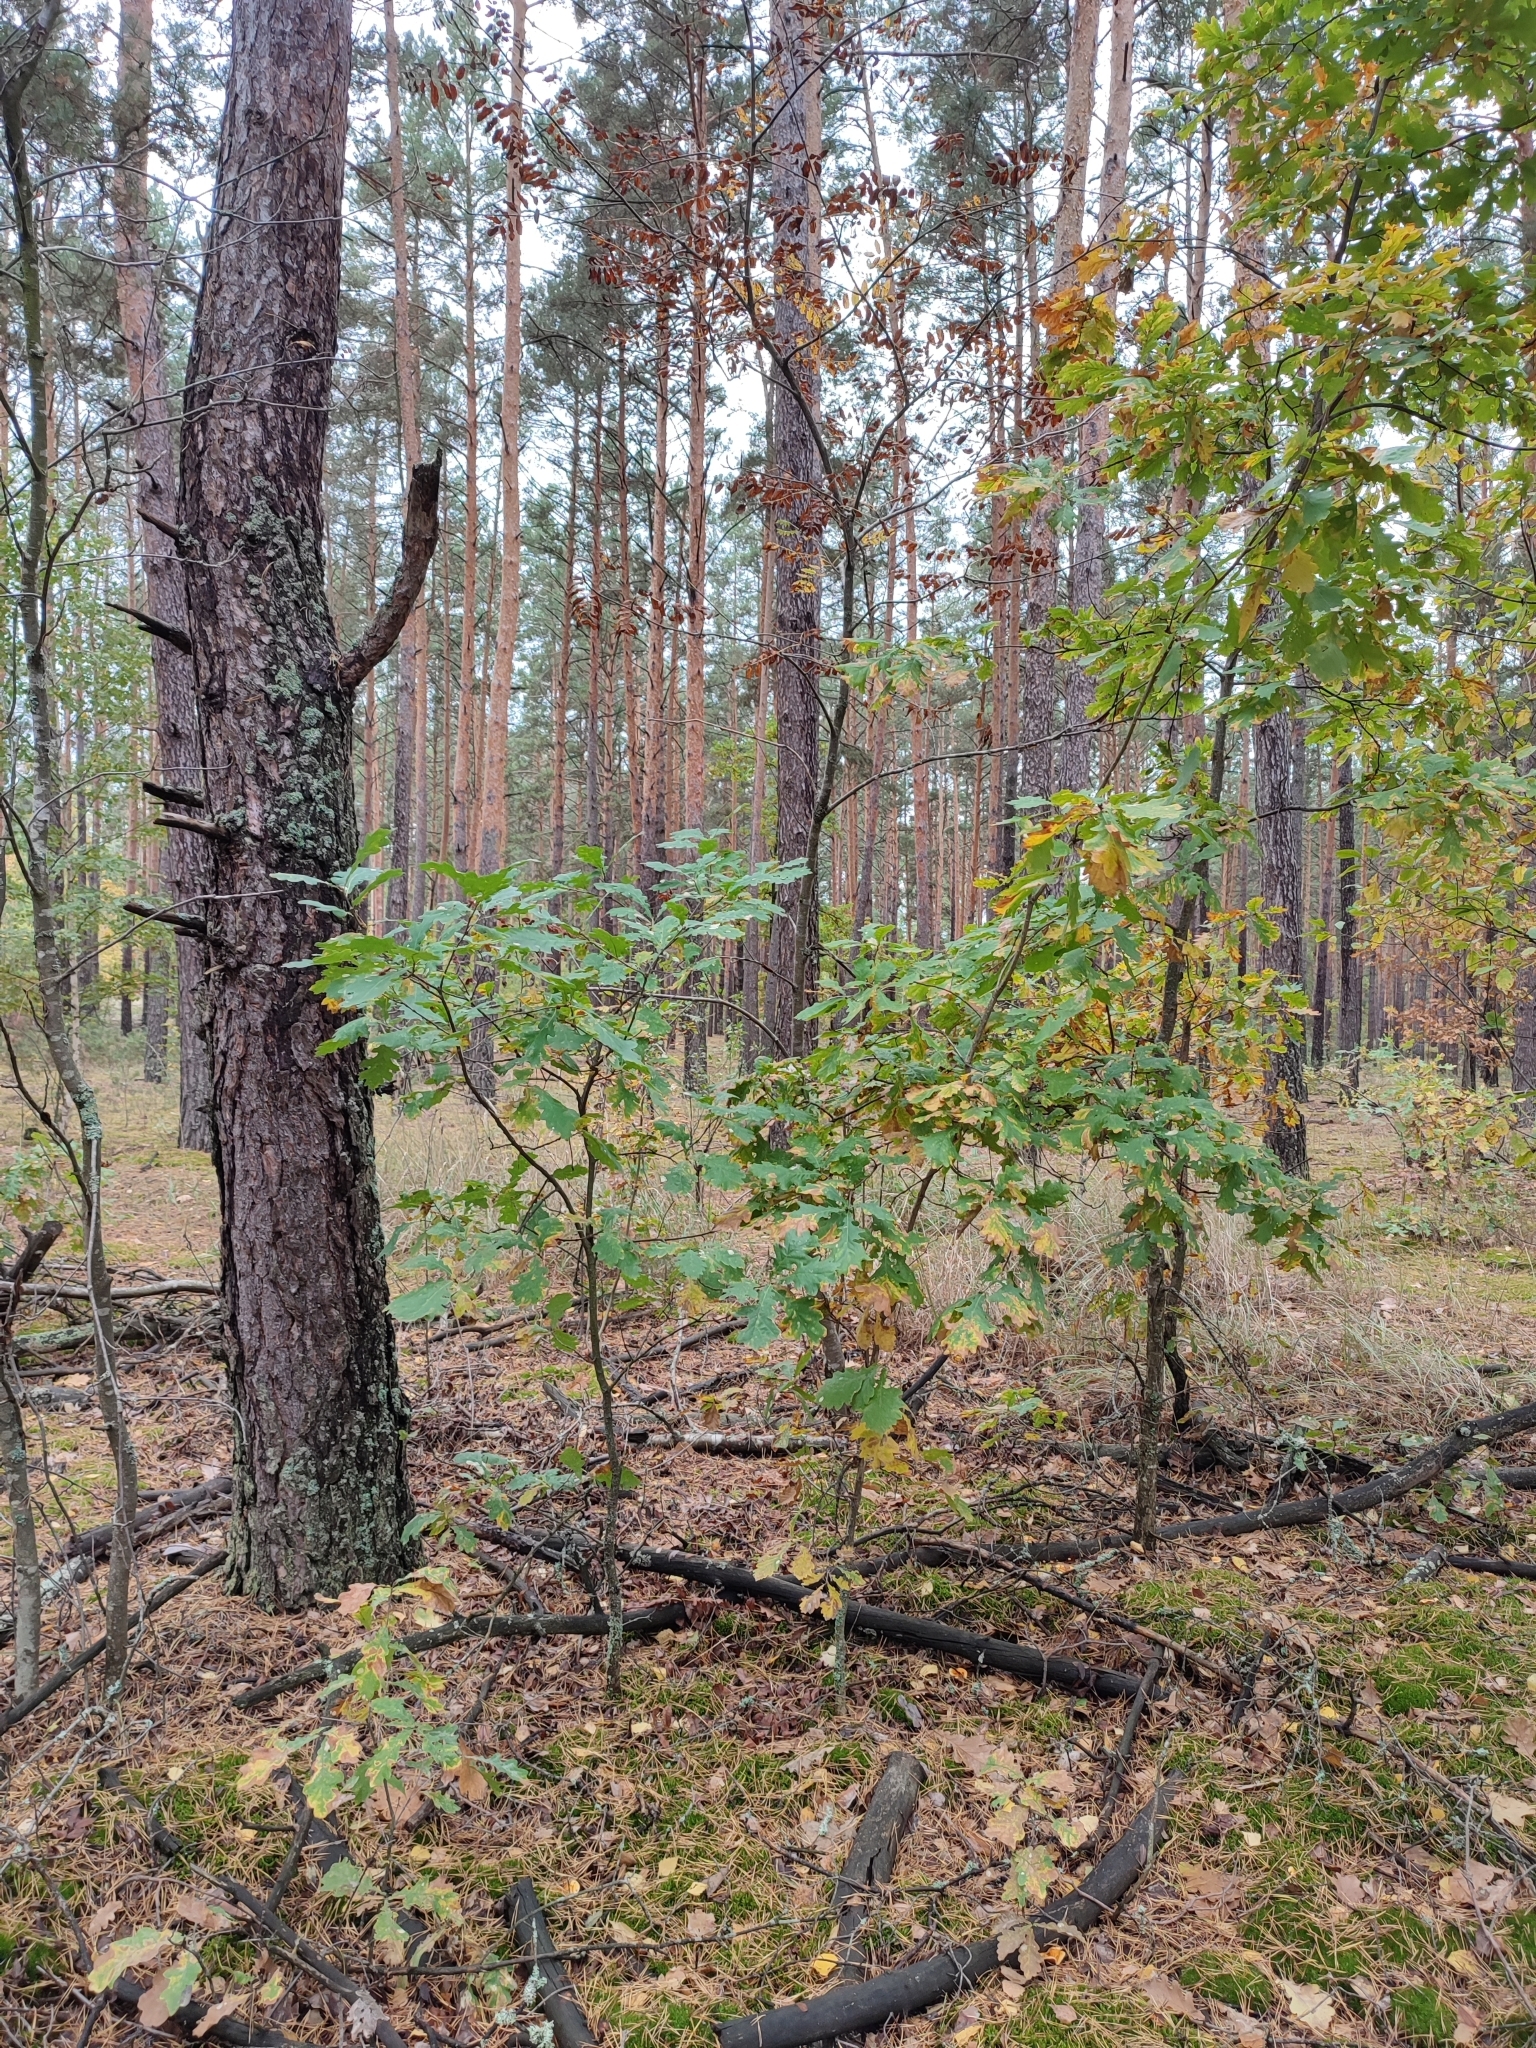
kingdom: Plantae
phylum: Tracheophyta
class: Magnoliopsida
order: Fagales
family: Fagaceae
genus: Quercus
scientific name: Quercus robur
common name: Pedunculate oak
